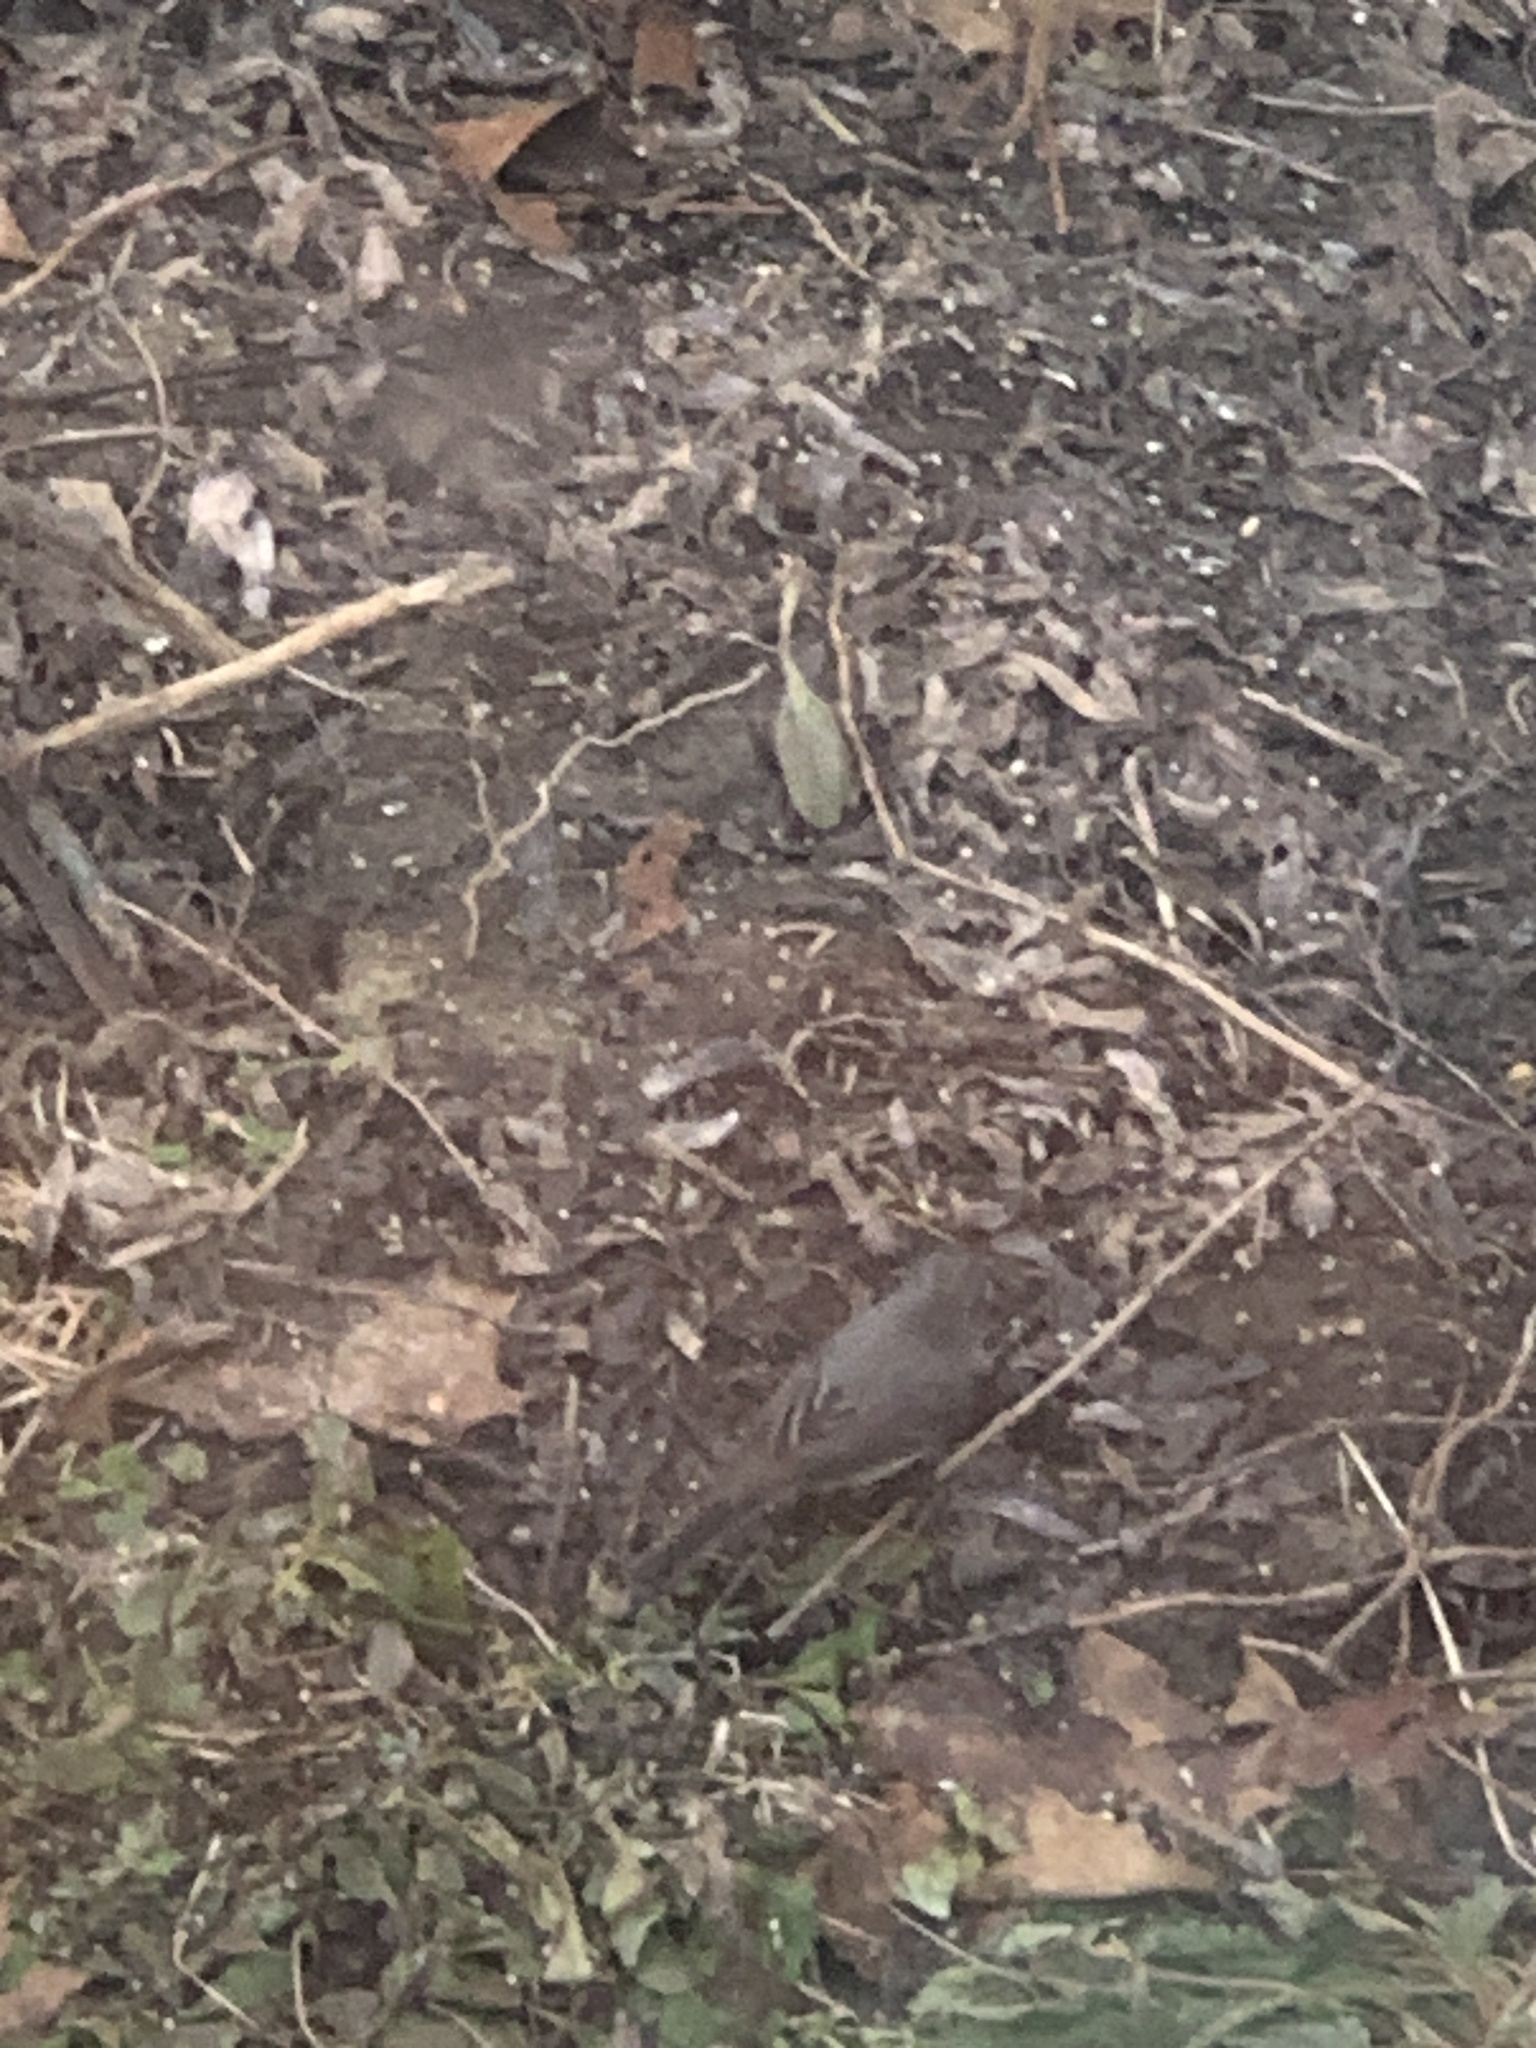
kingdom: Animalia
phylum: Chordata
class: Aves
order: Passeriformes
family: Passerellidae
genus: Junco
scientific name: Junco hyemalis
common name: Dark-eyed junco
